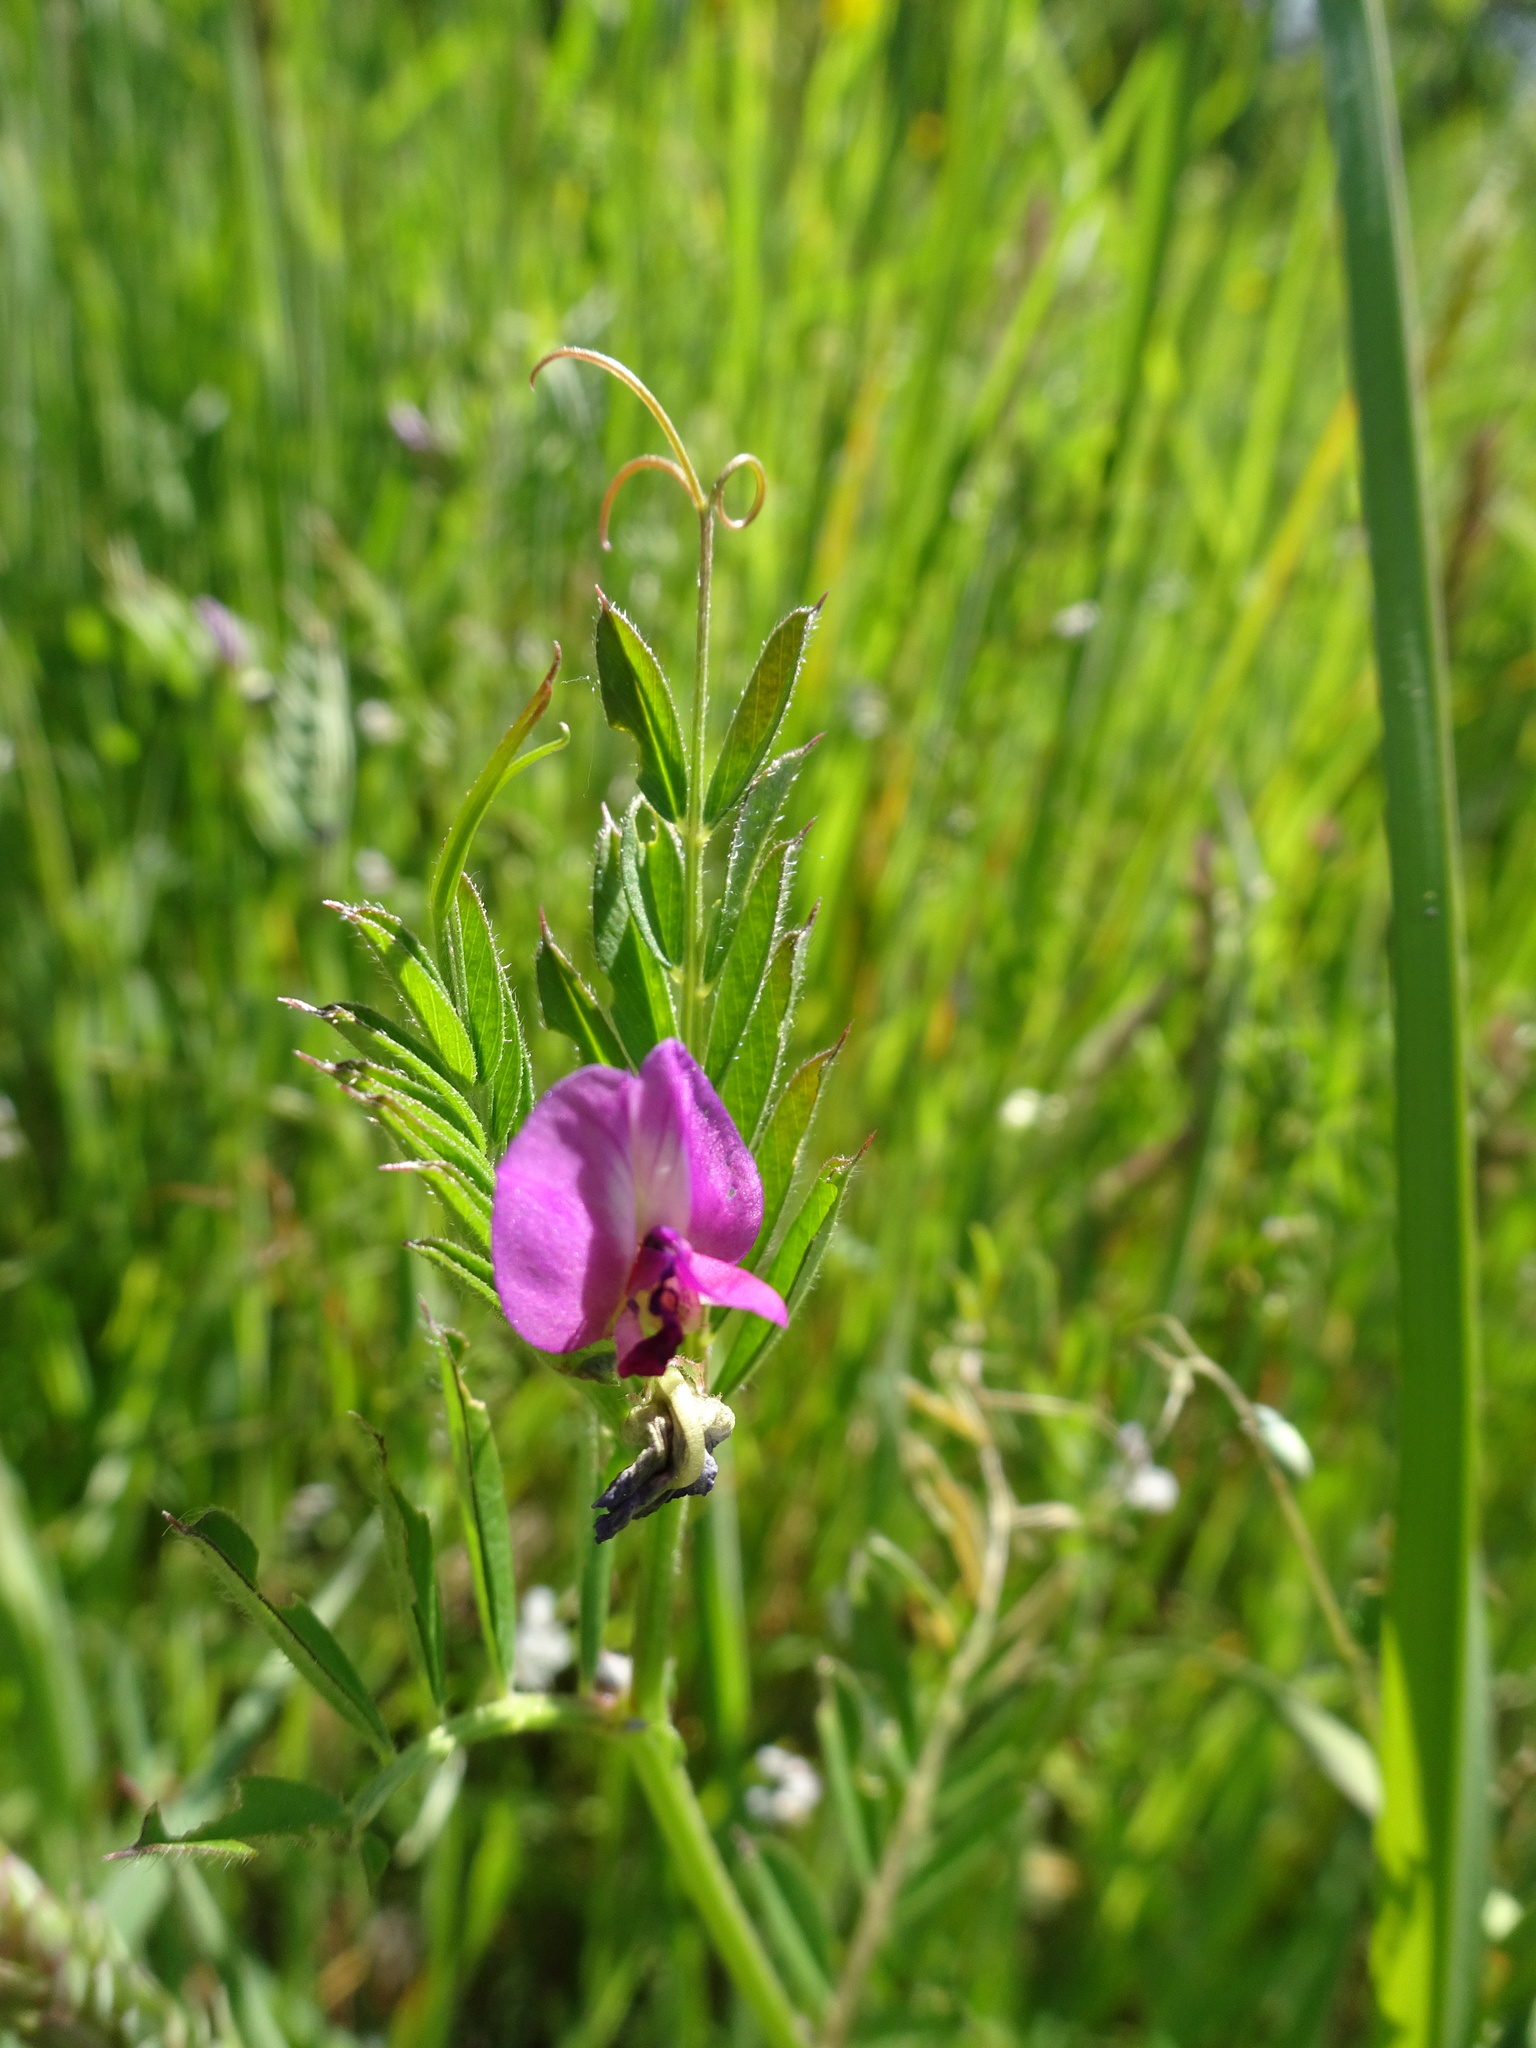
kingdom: Plantae
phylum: Tracheophyta
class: Magnoliopsida
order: Fabales
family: Fabaceae
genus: Vicia
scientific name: Vicia sativa
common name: Garden vetch
